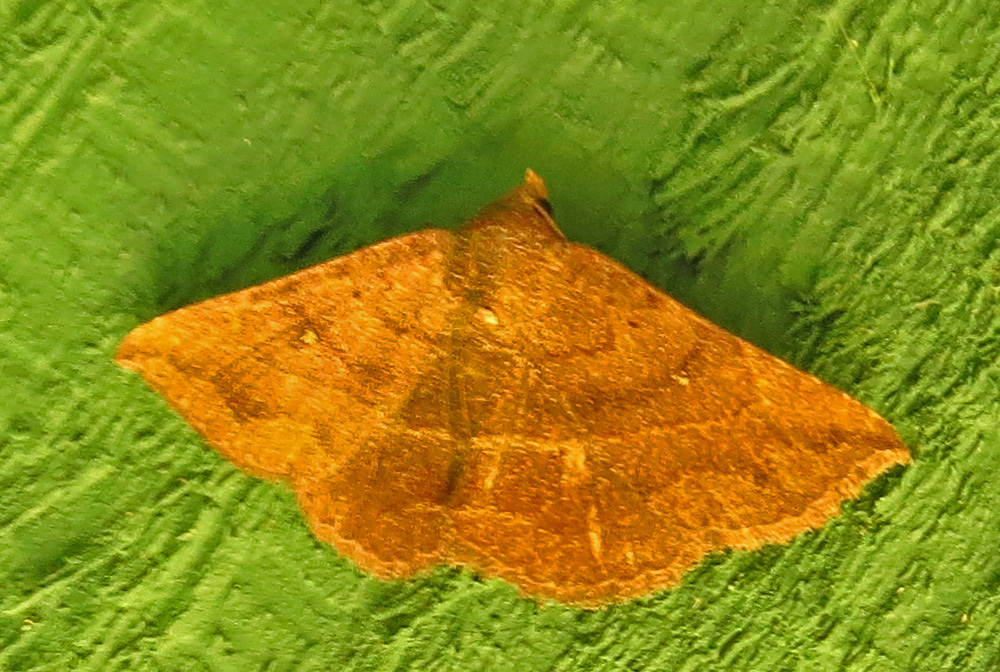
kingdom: Animalia
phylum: Arthropoda
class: Insecta
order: Lepidoptera
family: Erebidae
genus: Lesmone
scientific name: Lesmone detrahens
